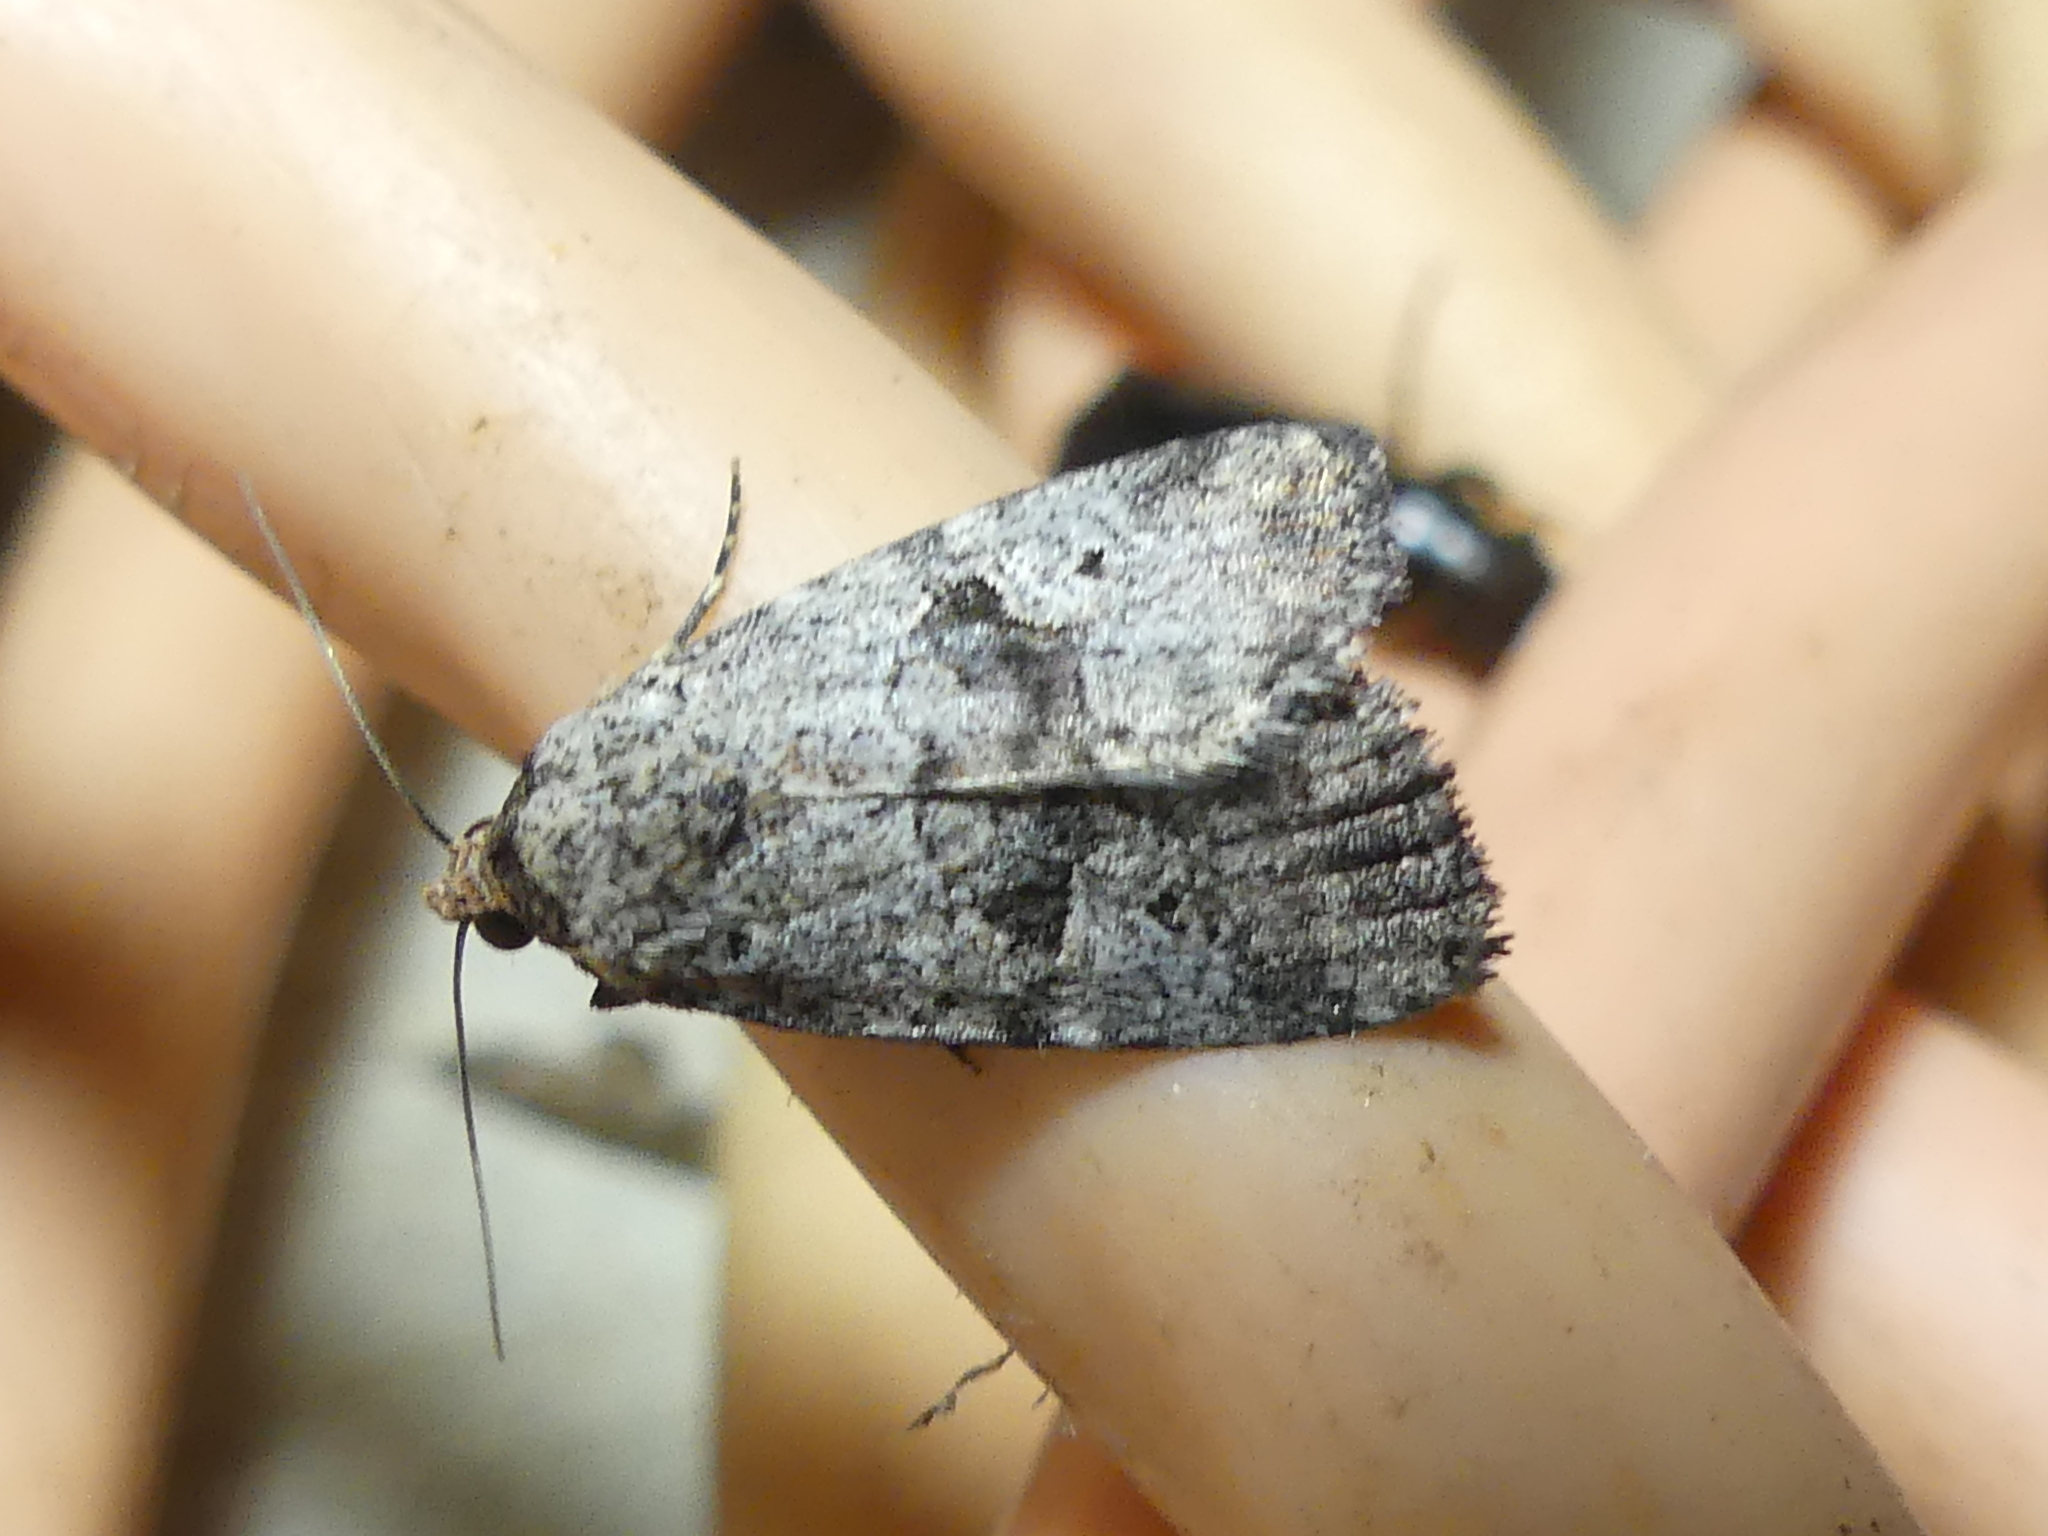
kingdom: Animalia
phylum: Arthropoda
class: Insecta
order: Lepidoptera
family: Noctuidae
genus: Elaphria
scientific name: Elaphria festivoides
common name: Festive midget
